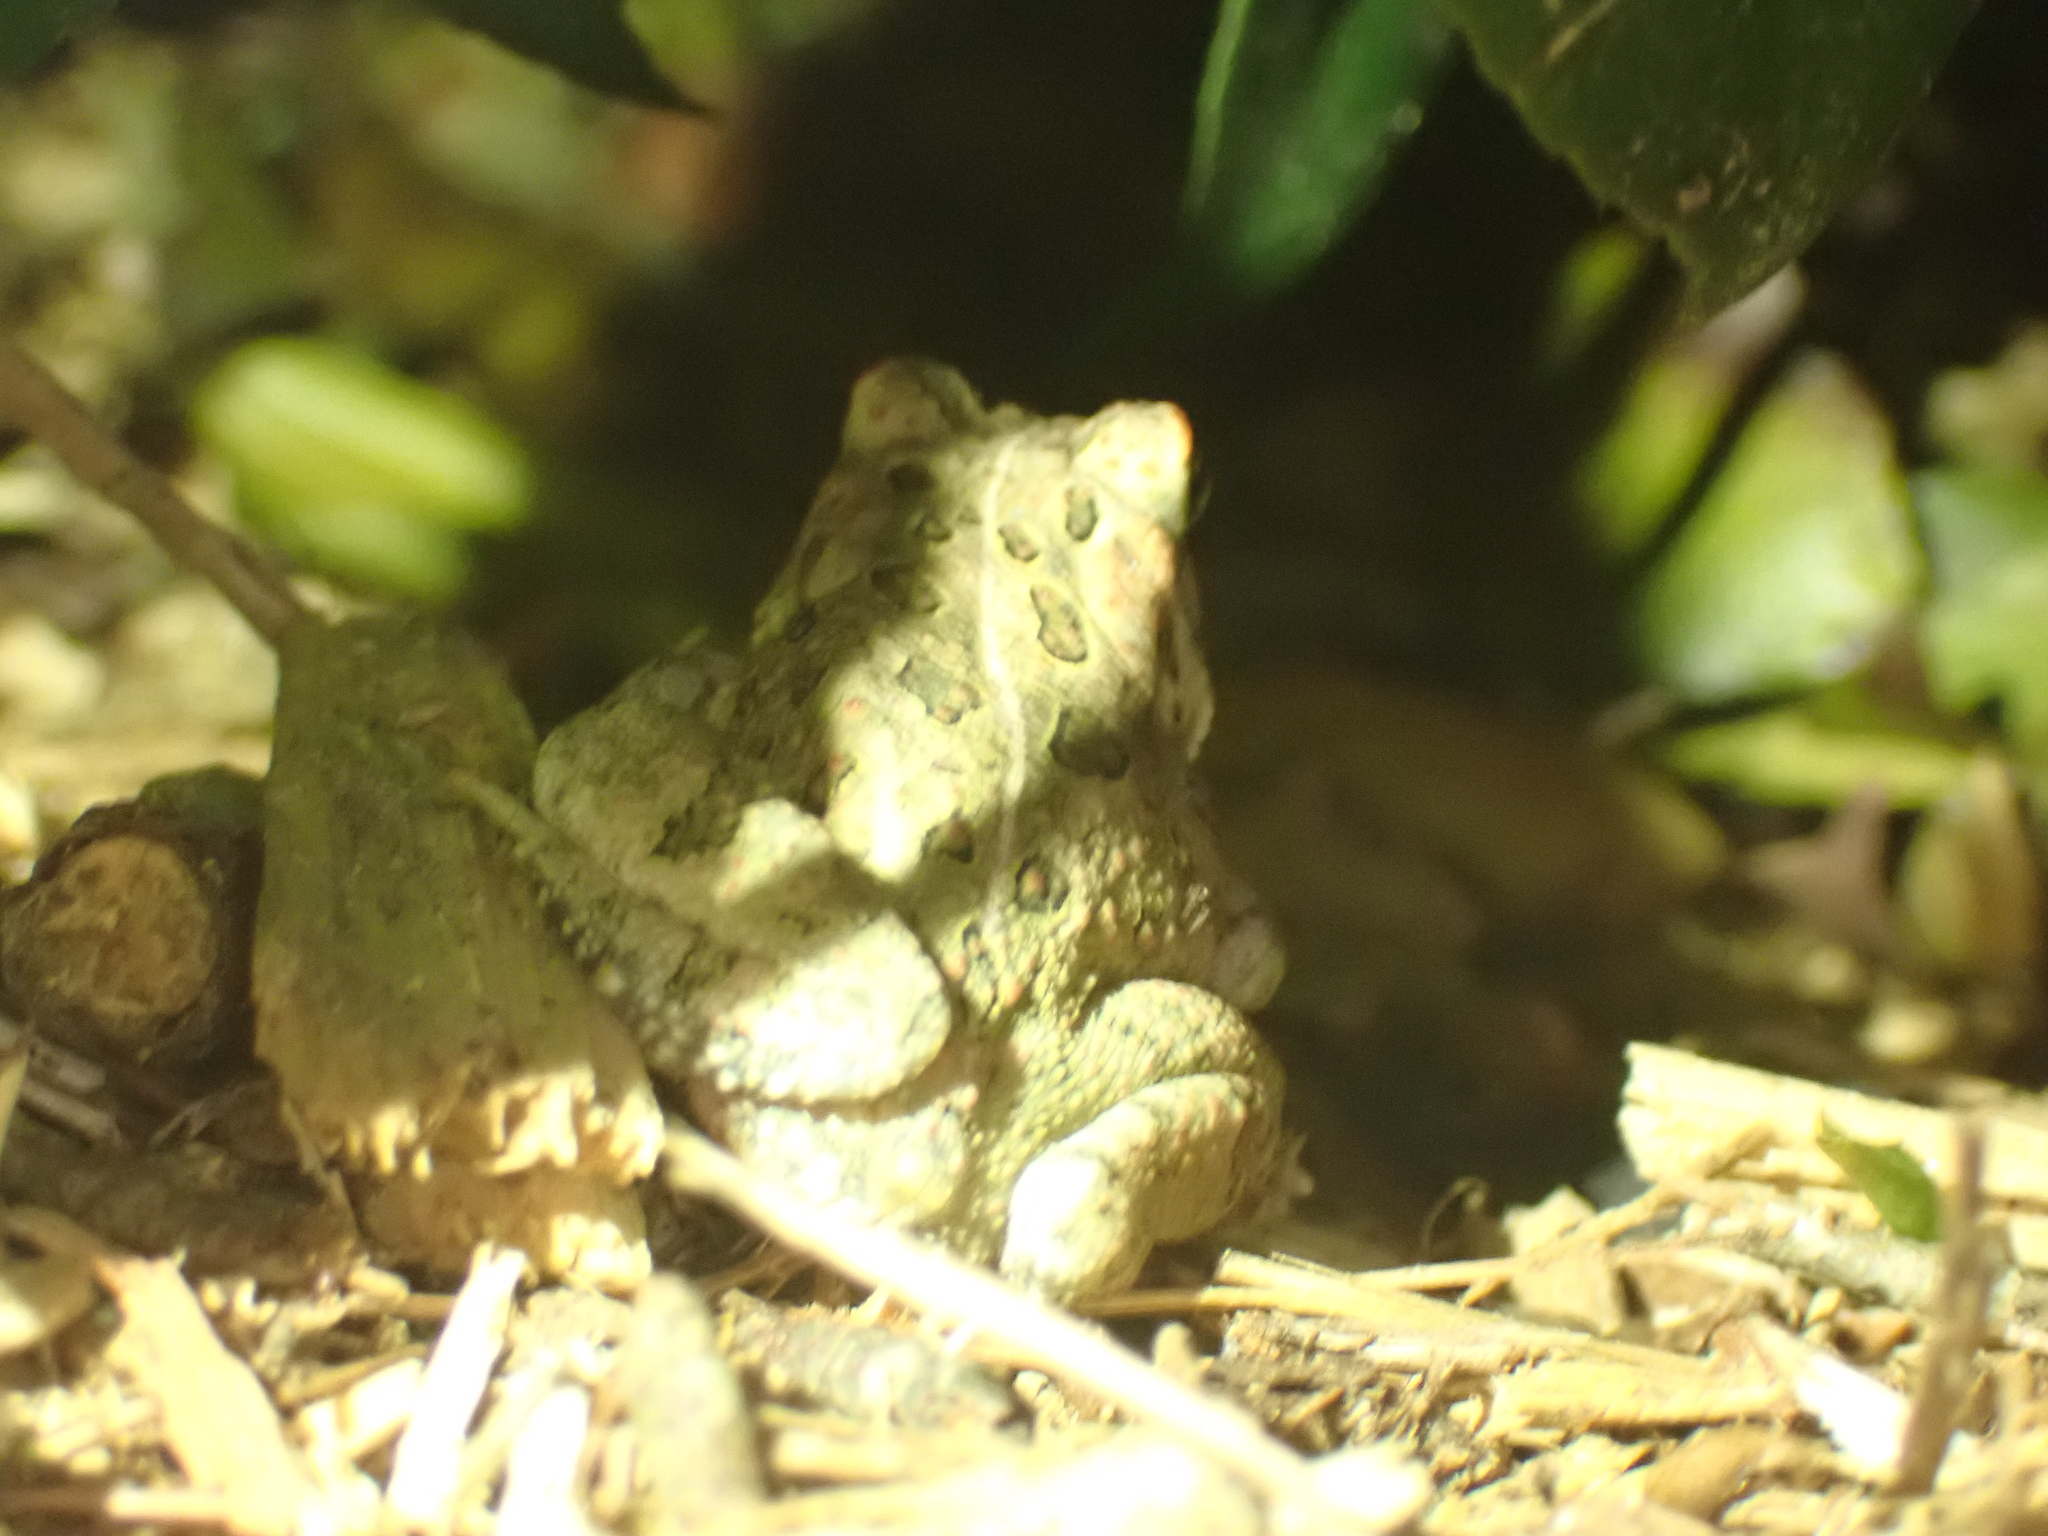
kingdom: Animalia
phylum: Chordata
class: Amphibia
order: Anura
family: Bufonidae
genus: Anaxyrus
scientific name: Anaxyrus fowleri
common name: Fowler's toad
